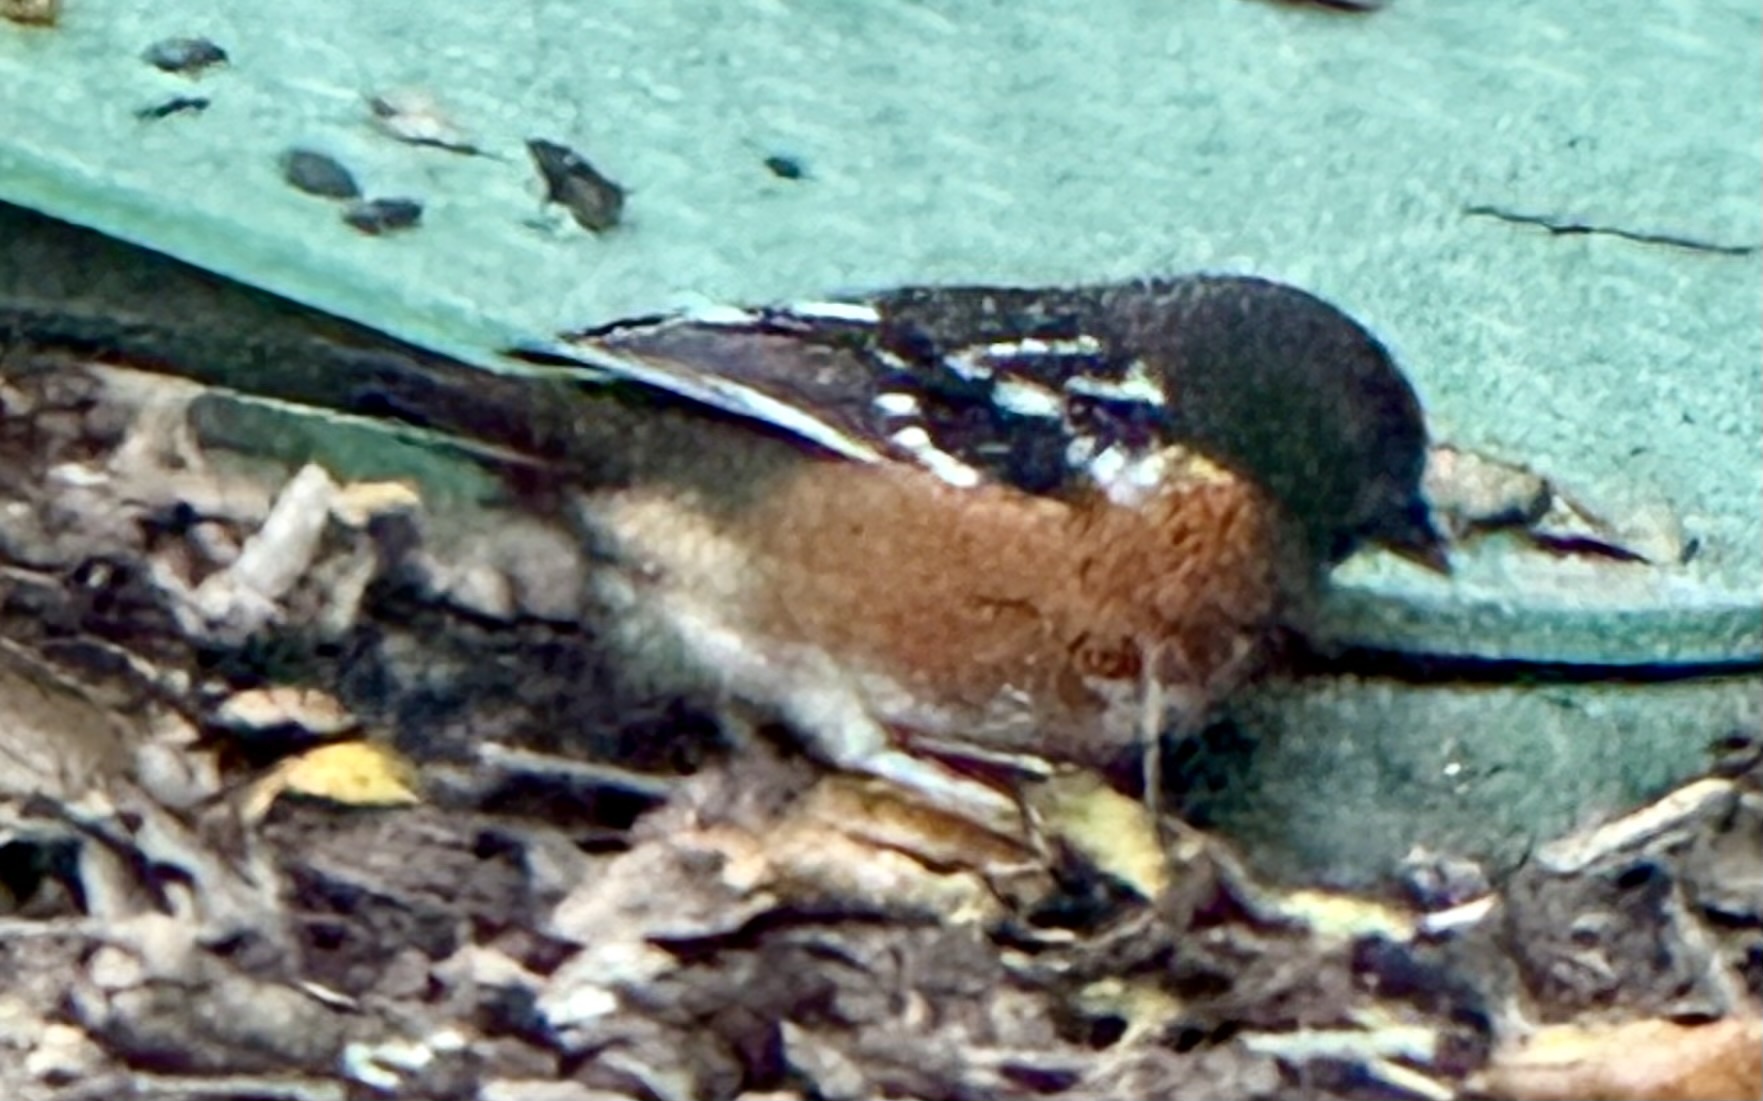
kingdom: Animalia
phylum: Chordata
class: Aves
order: Passeriformes
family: Passerellidae
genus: Pipilo
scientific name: Pipilo maculatus
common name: Spotted towhee
